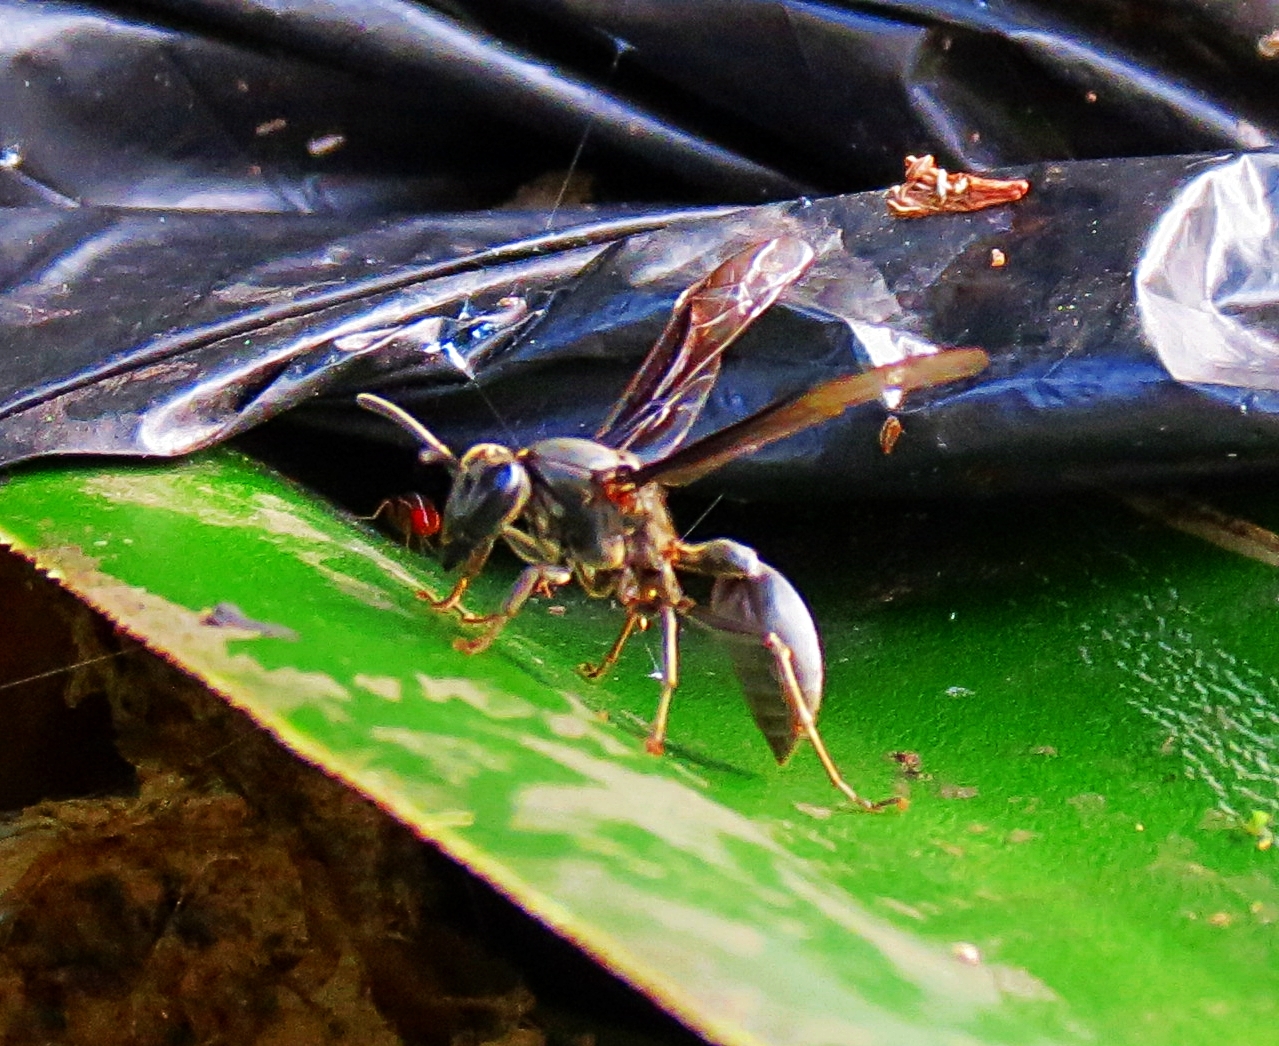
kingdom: Animalia
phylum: Arthropoda
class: Insecta
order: Hymenoptera
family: Eumenidae
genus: Polybia
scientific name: Polybia ignobilis
